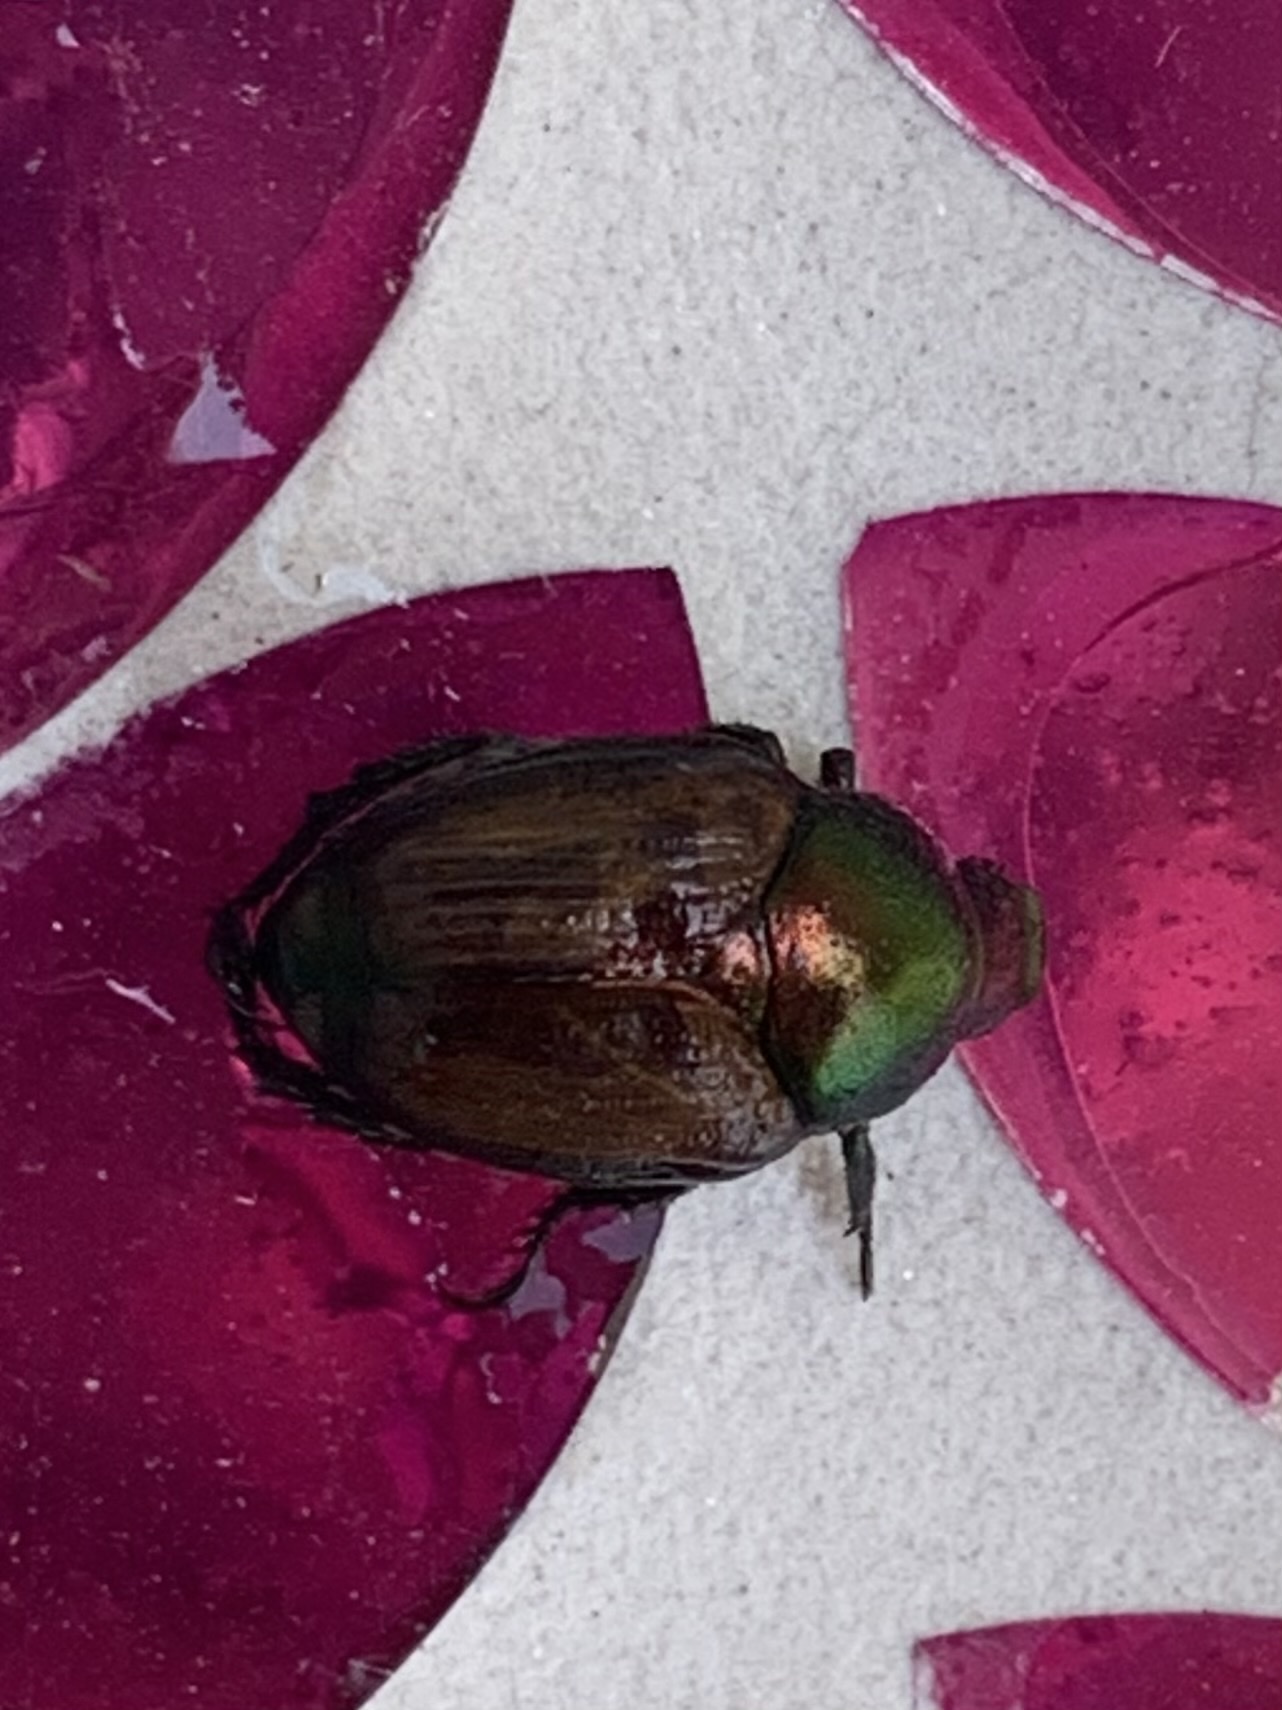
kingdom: Animalia
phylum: Arthropoda
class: Insecta
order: Coleoptera
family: Scarabaeidae
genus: Popillia
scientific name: Popillia japonica
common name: Japanese beetle
